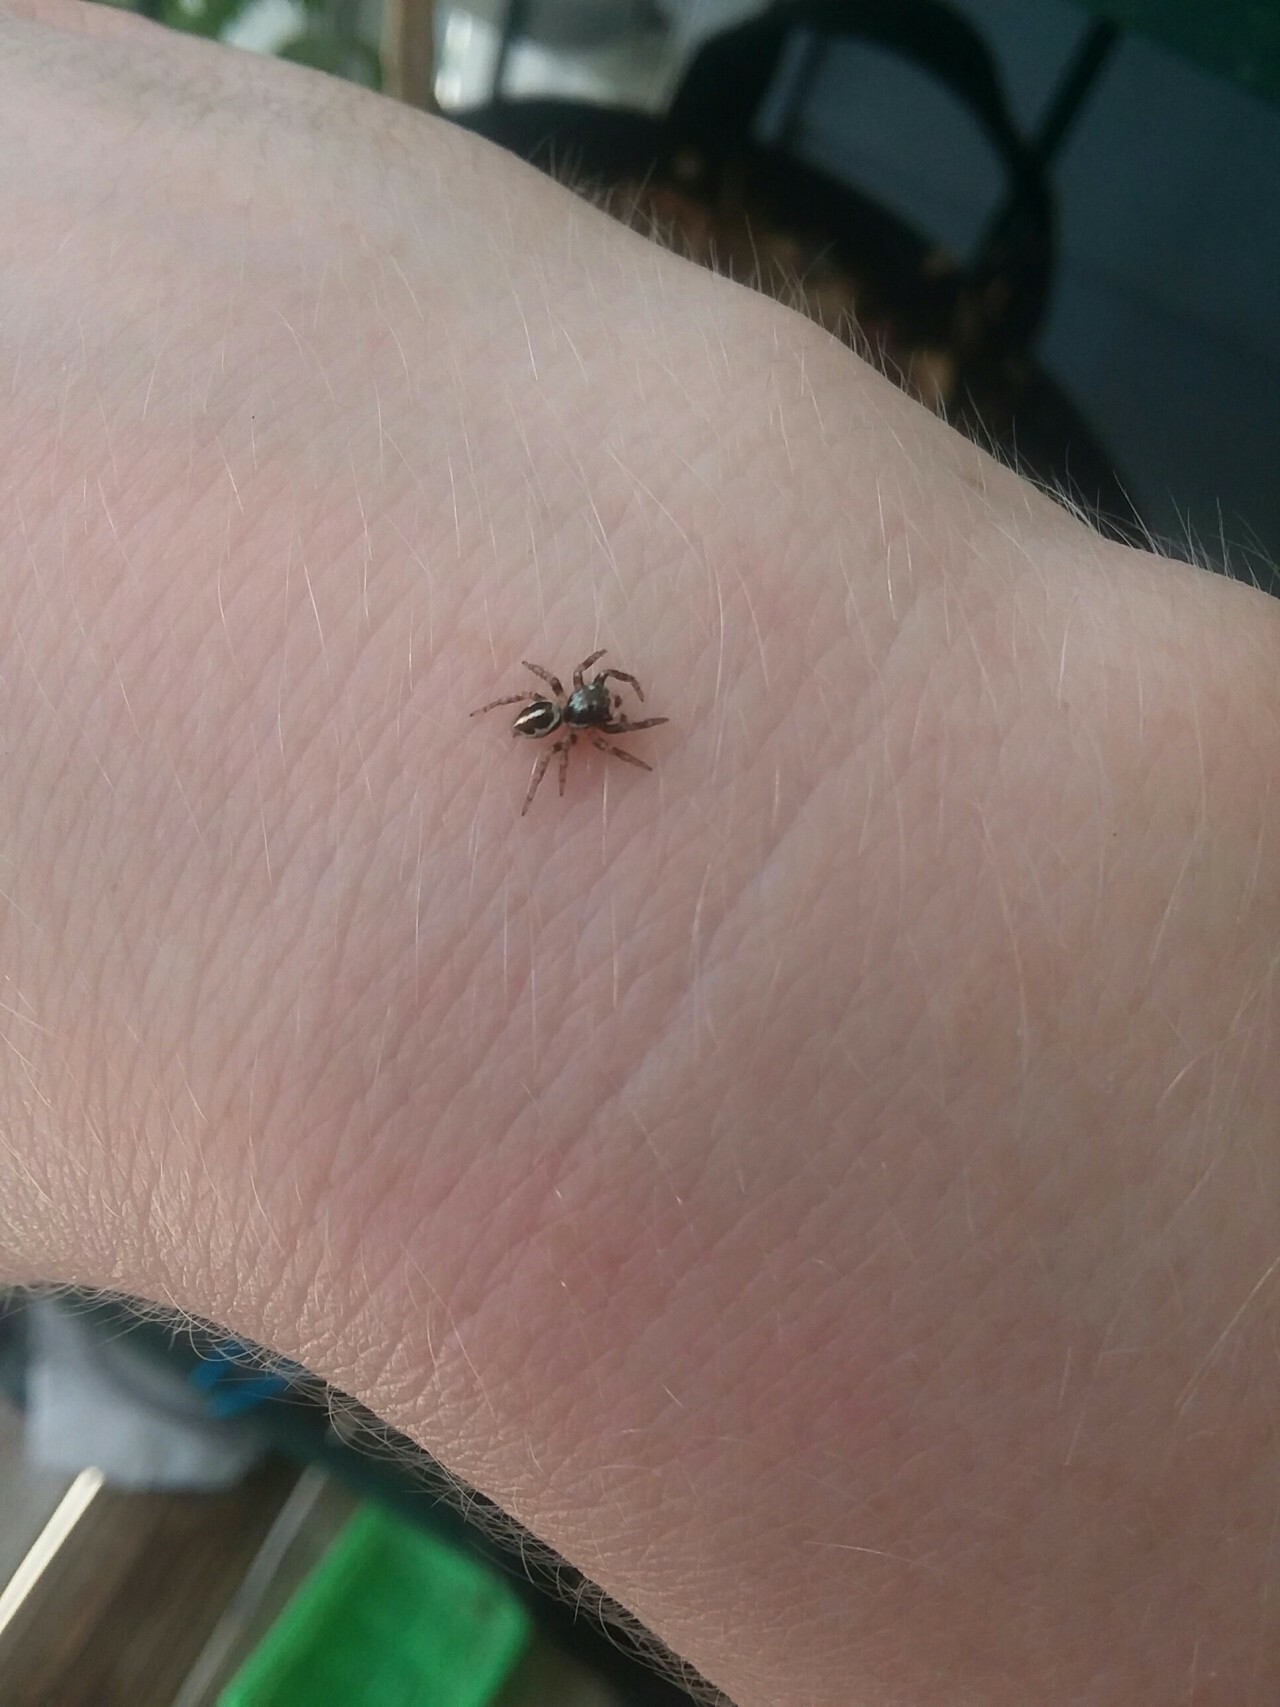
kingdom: Animalia
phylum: Arthropoda
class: Arachnida
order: Araneae
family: Salticidae
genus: Anasaitis
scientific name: Anasaitis canosa
